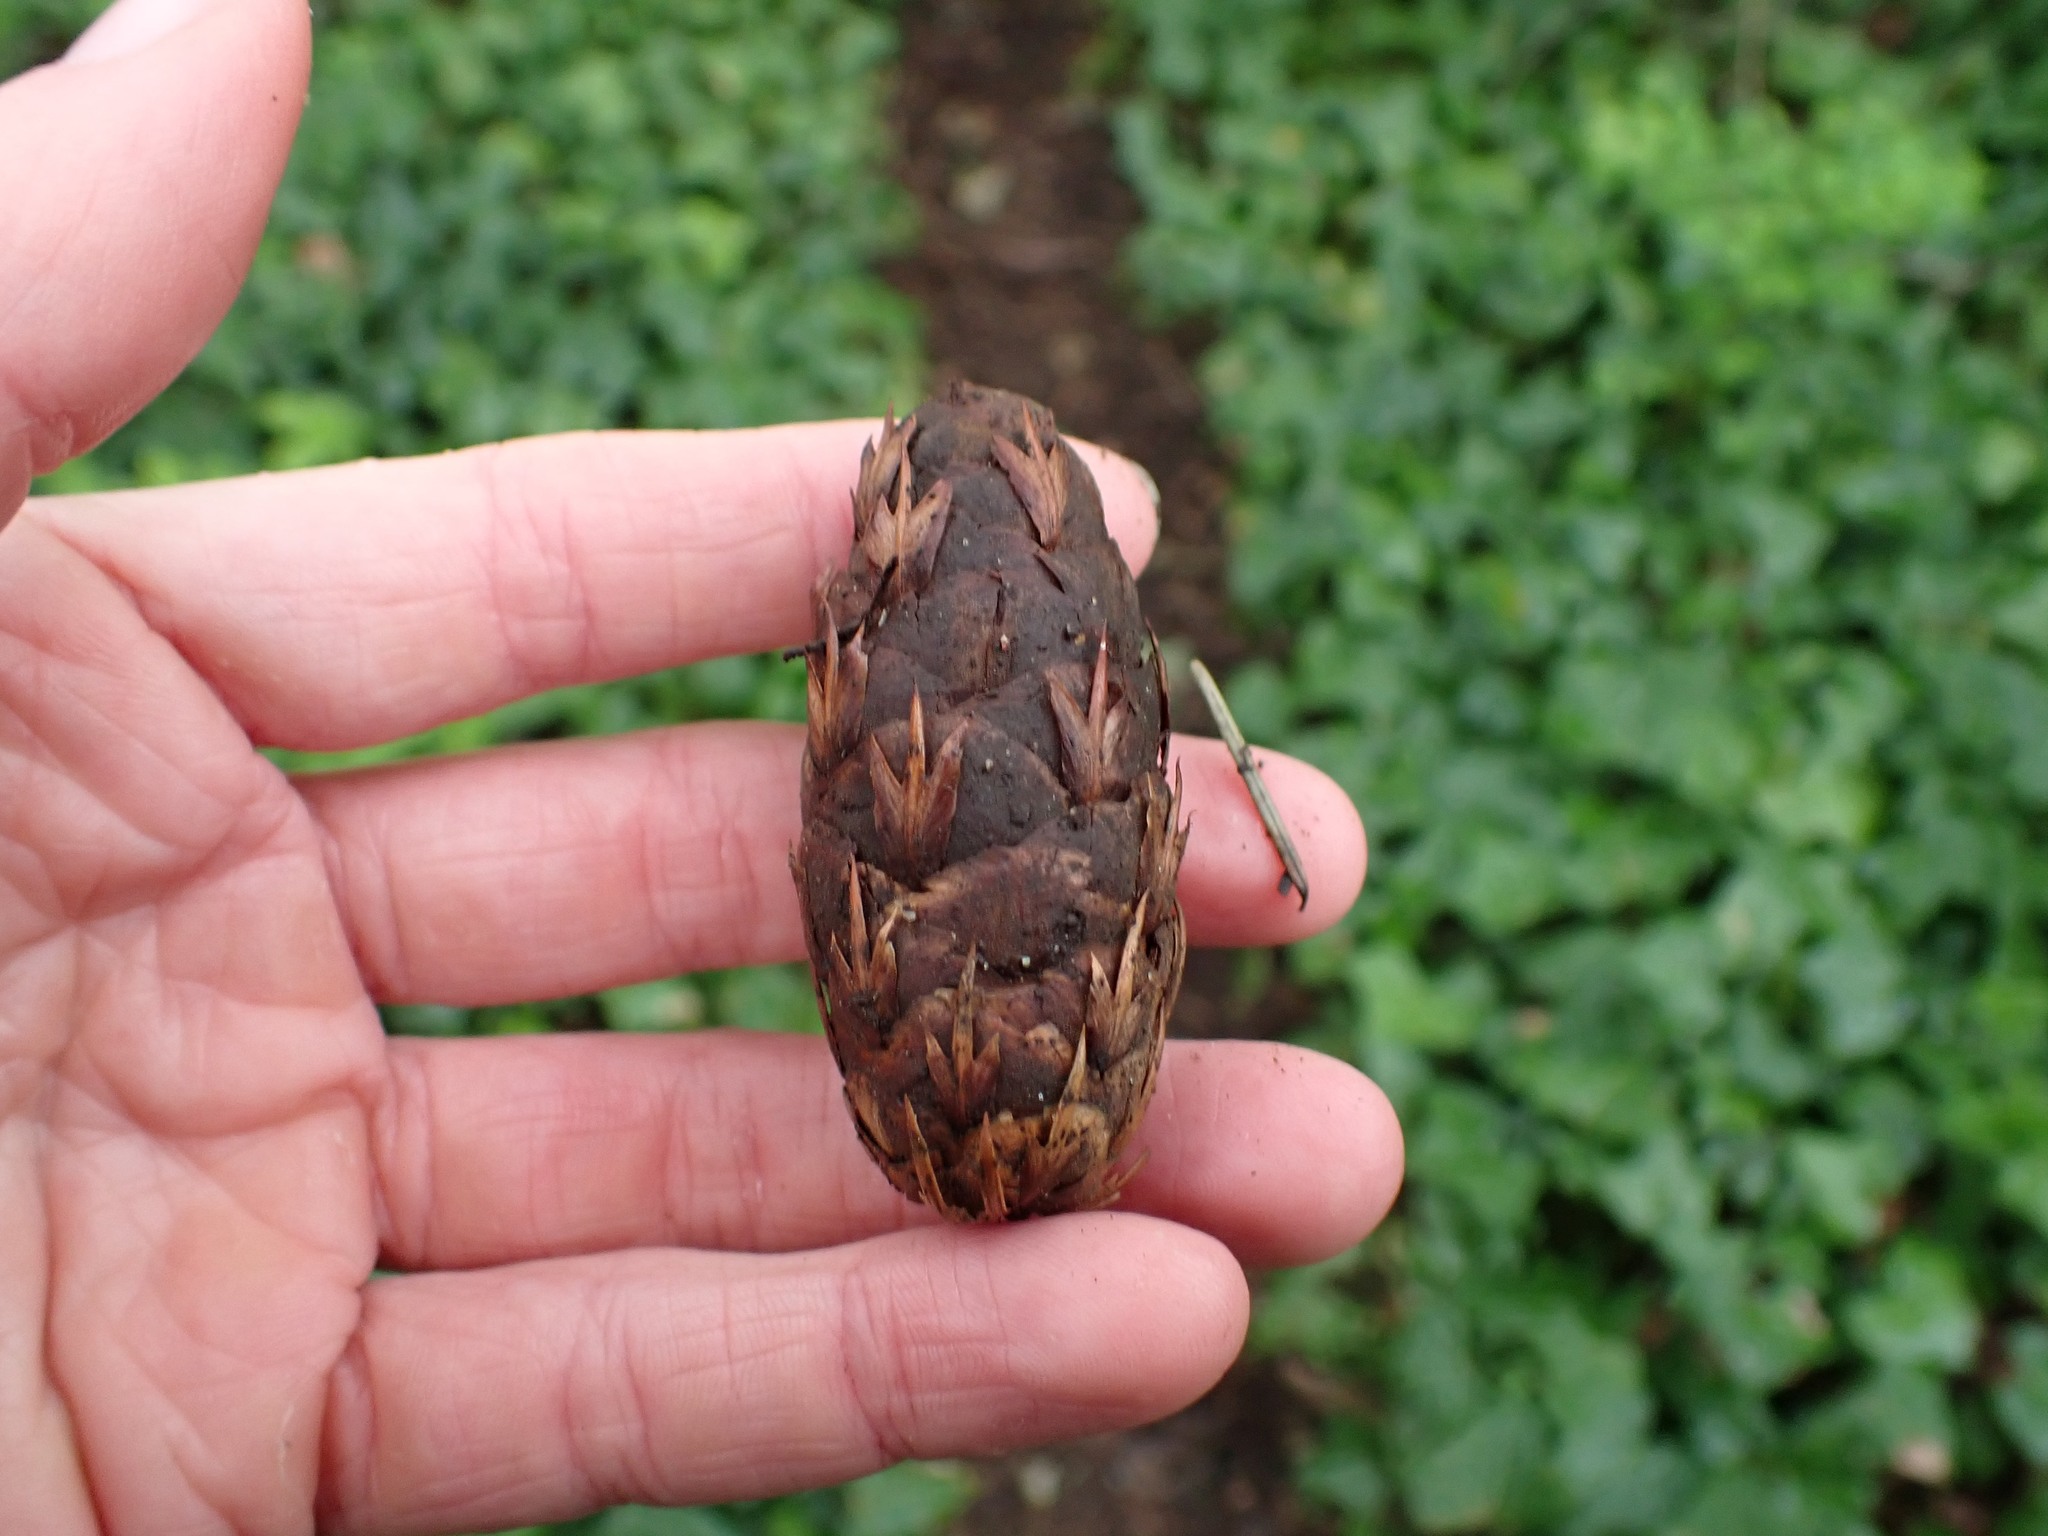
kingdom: Plantae
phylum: Tracheophyta
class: Pinopsida
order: Pinales
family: Pinaceae
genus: Pseudotsuga
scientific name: Pseudotsuga menziesii
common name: Douglas fir
